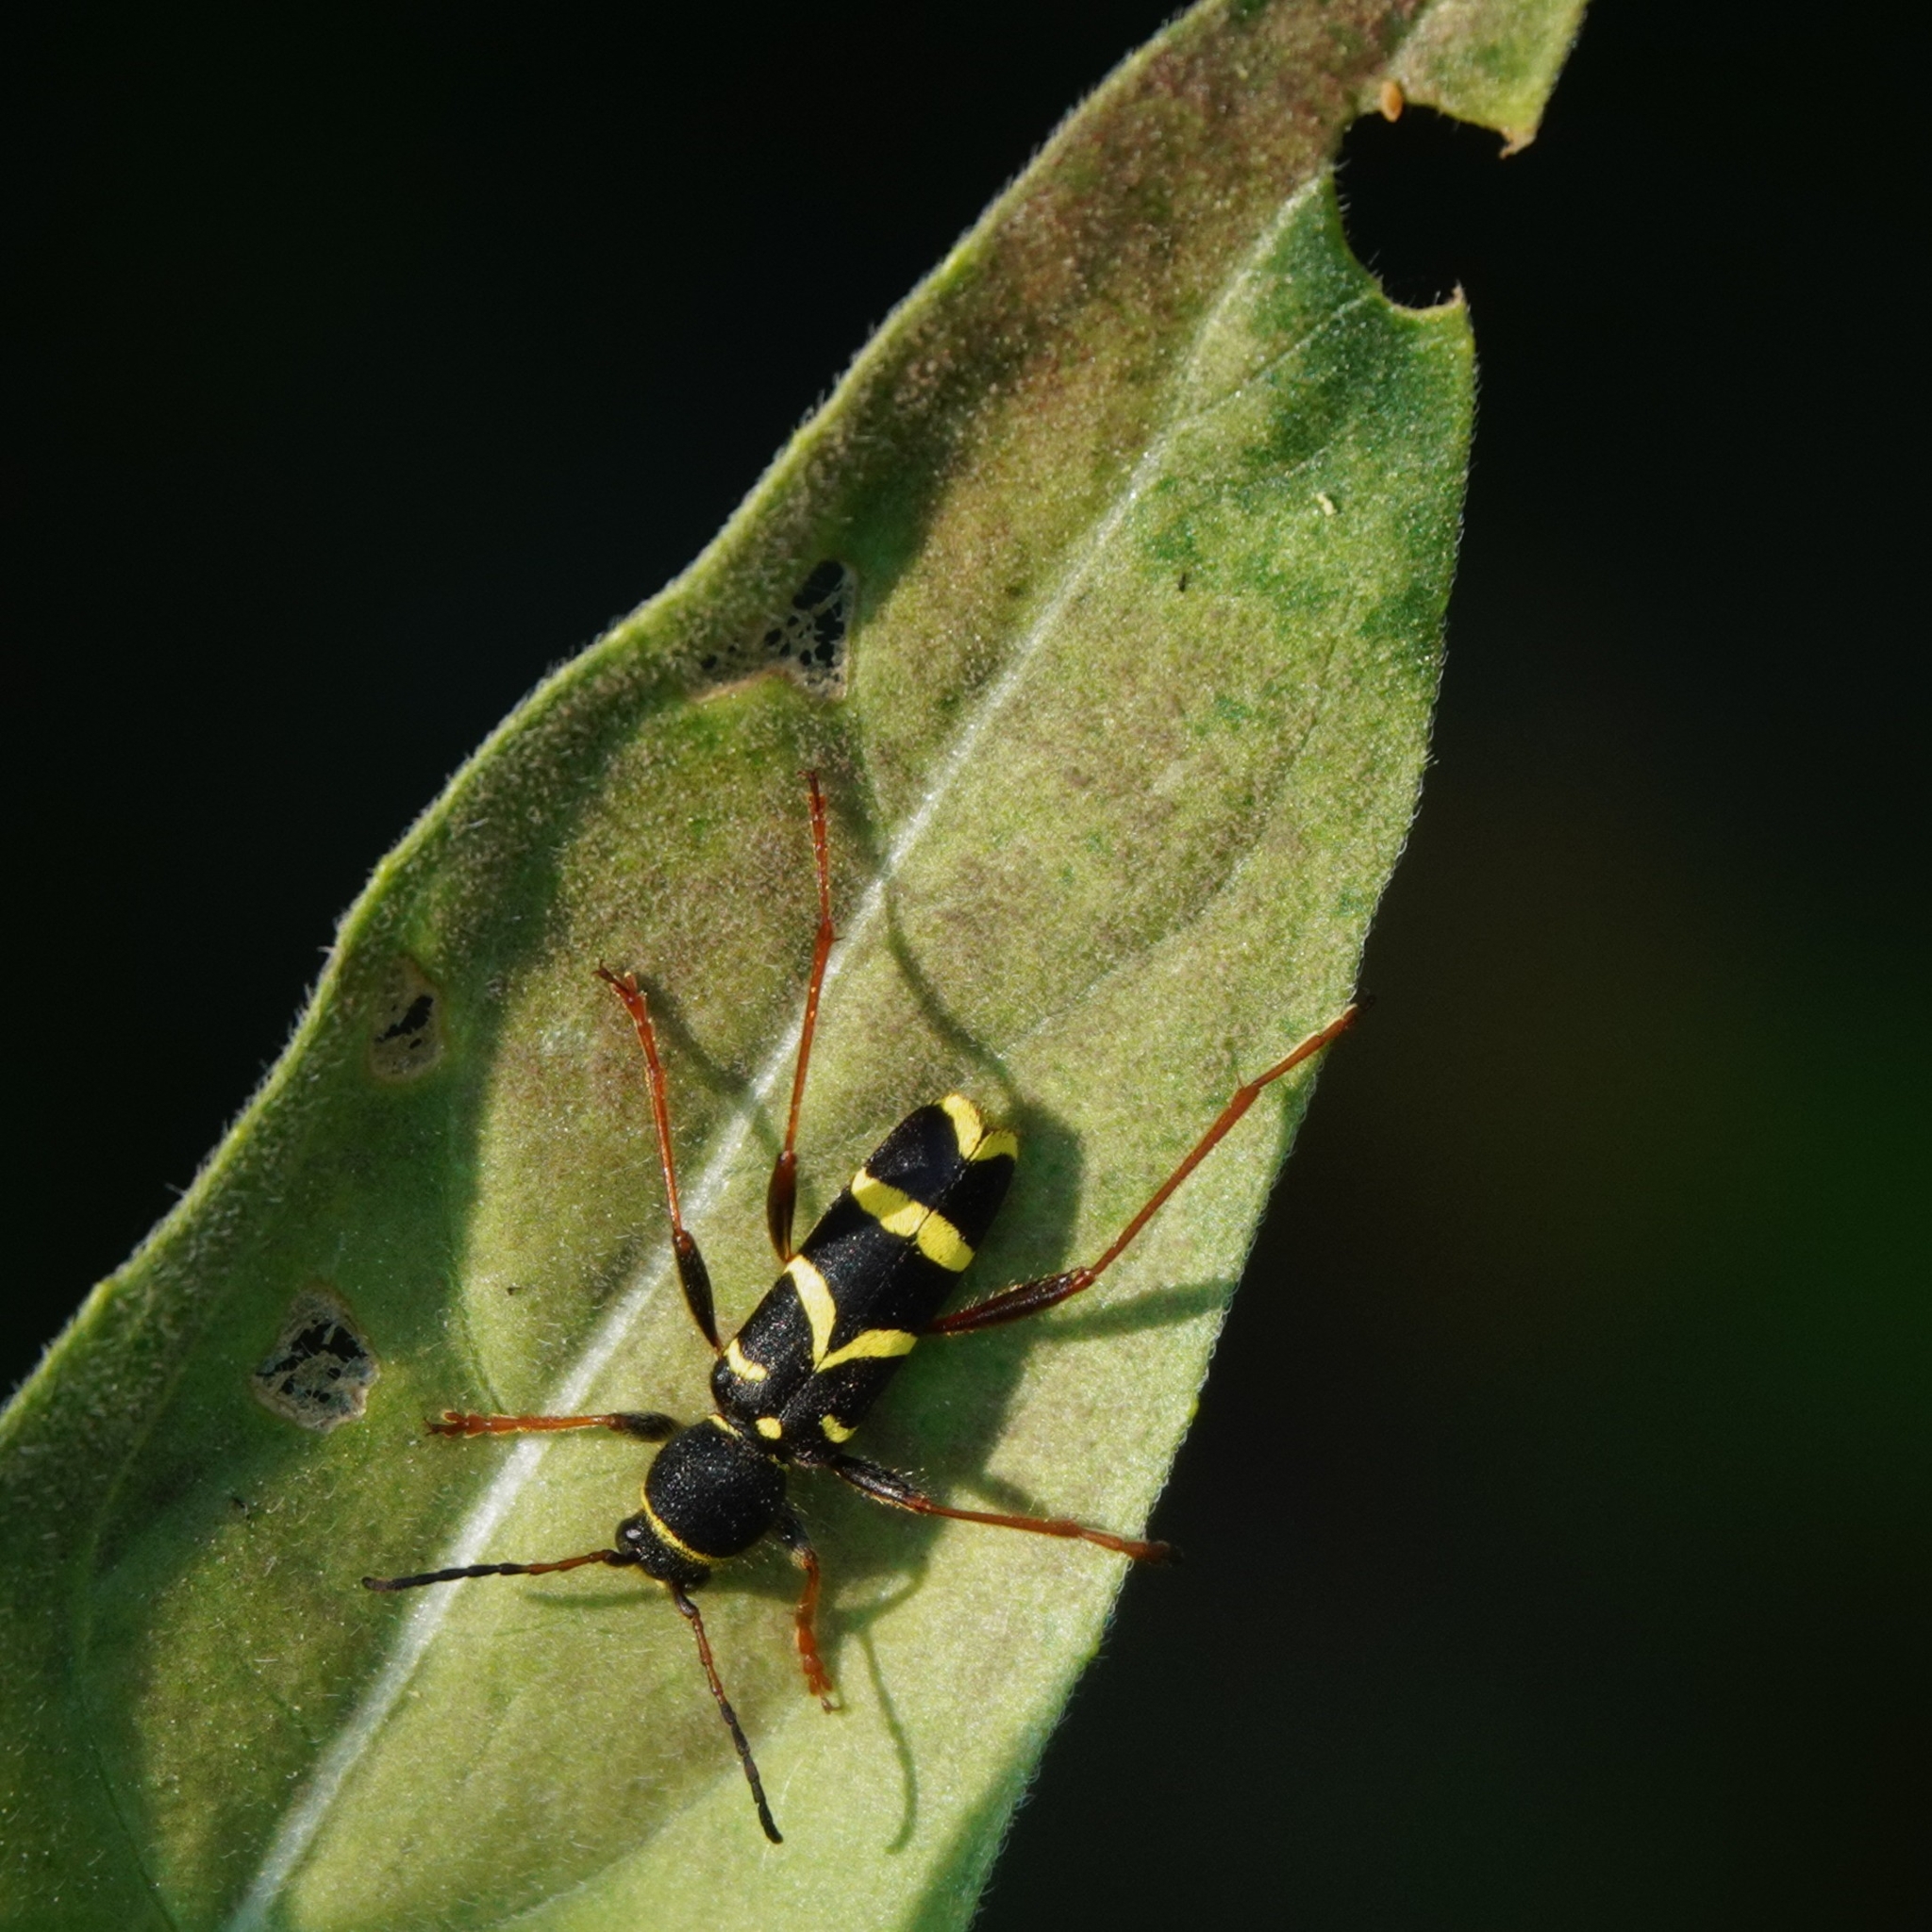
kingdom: Animalia
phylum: Arthropoda
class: Insecta
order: Coleoptera
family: Cerambycidae
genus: Clytus
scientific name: Clytus arietis
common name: Wasp beetle
